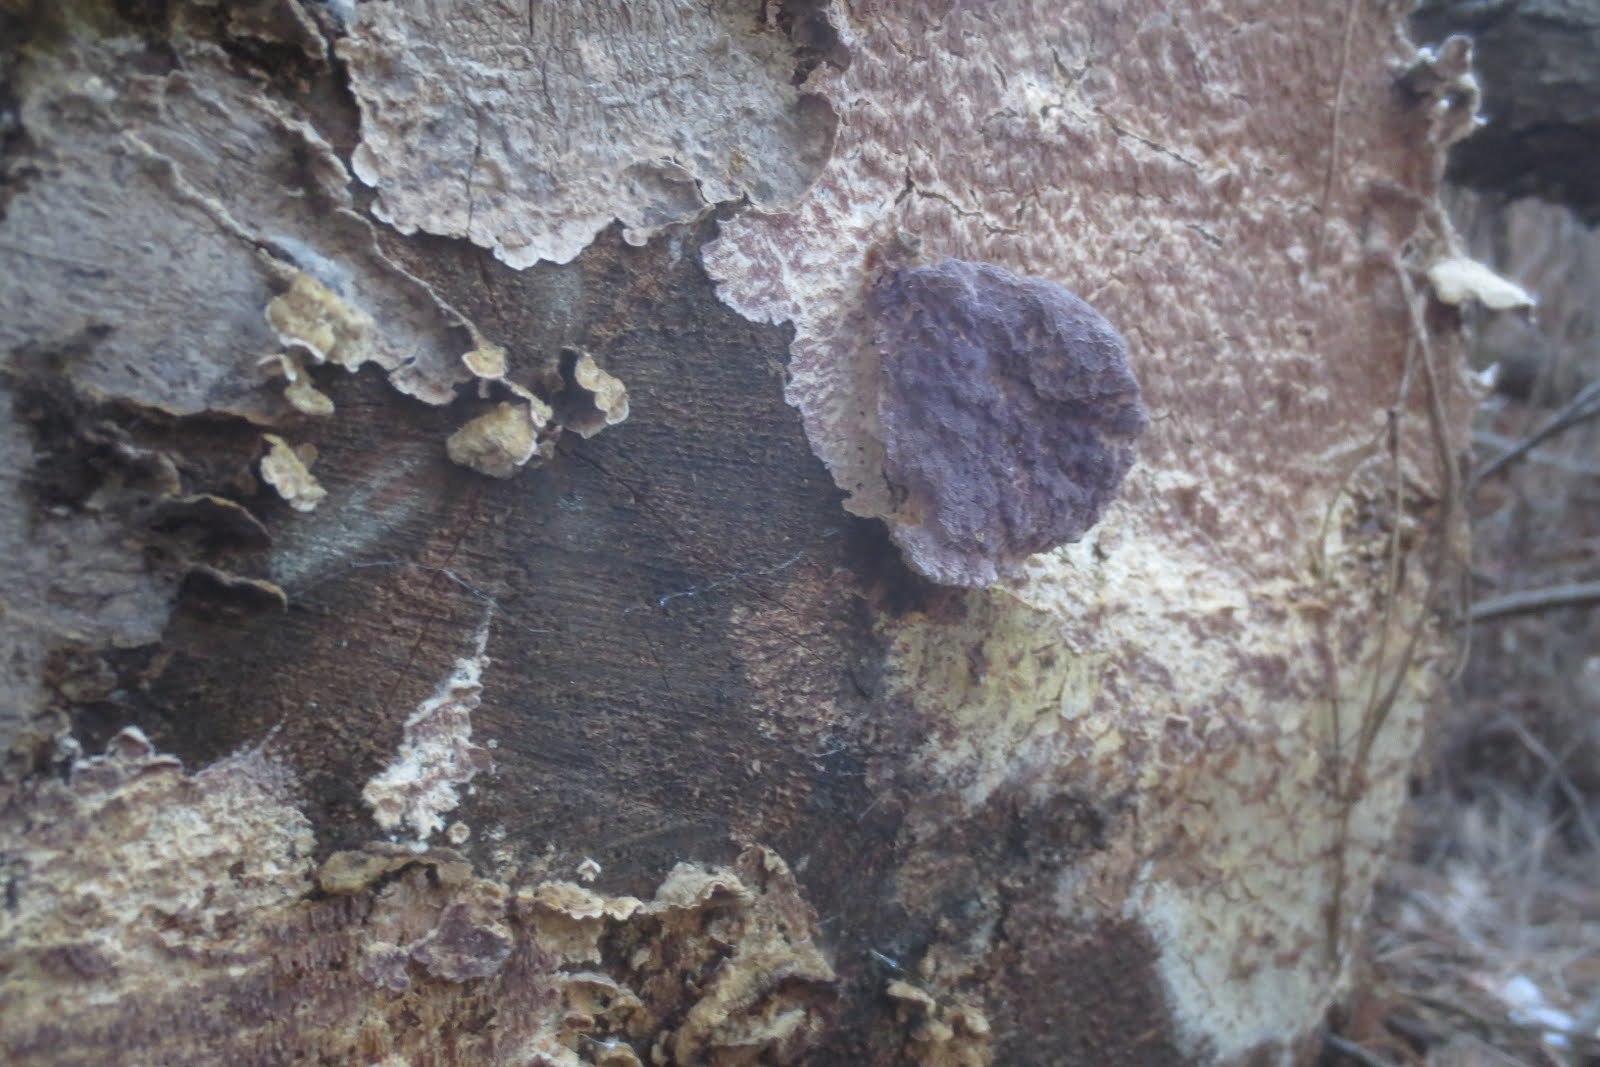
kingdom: Fungi
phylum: Basidiomycota
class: Agaricomycetes
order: Hymenochaetales
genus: Trichaptum
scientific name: Trichaptum abietinum
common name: Purplepore bracket
